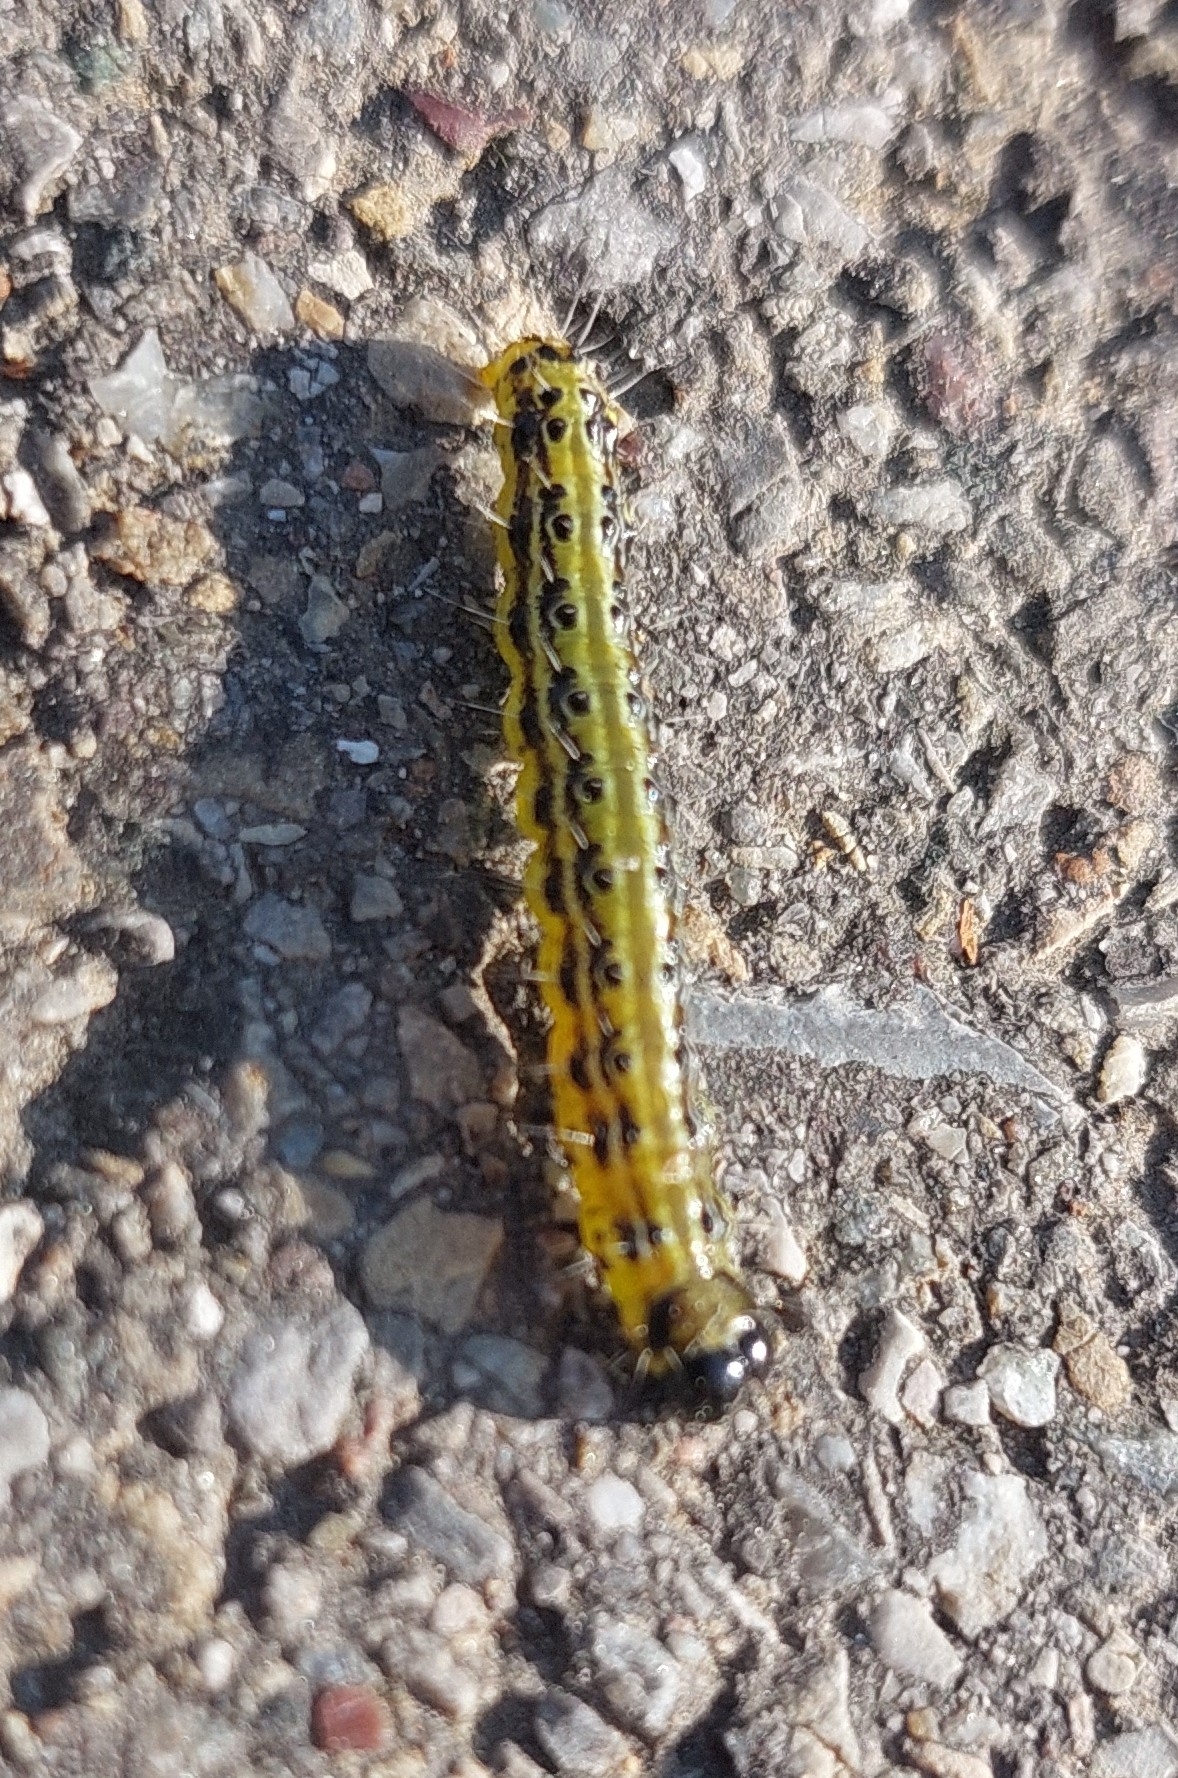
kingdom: Animalia
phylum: Arthropoda
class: Insecta
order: Lepidoptera
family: Crambidae
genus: Cydalima
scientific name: Cydalima perspectalis
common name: Box tree moth
